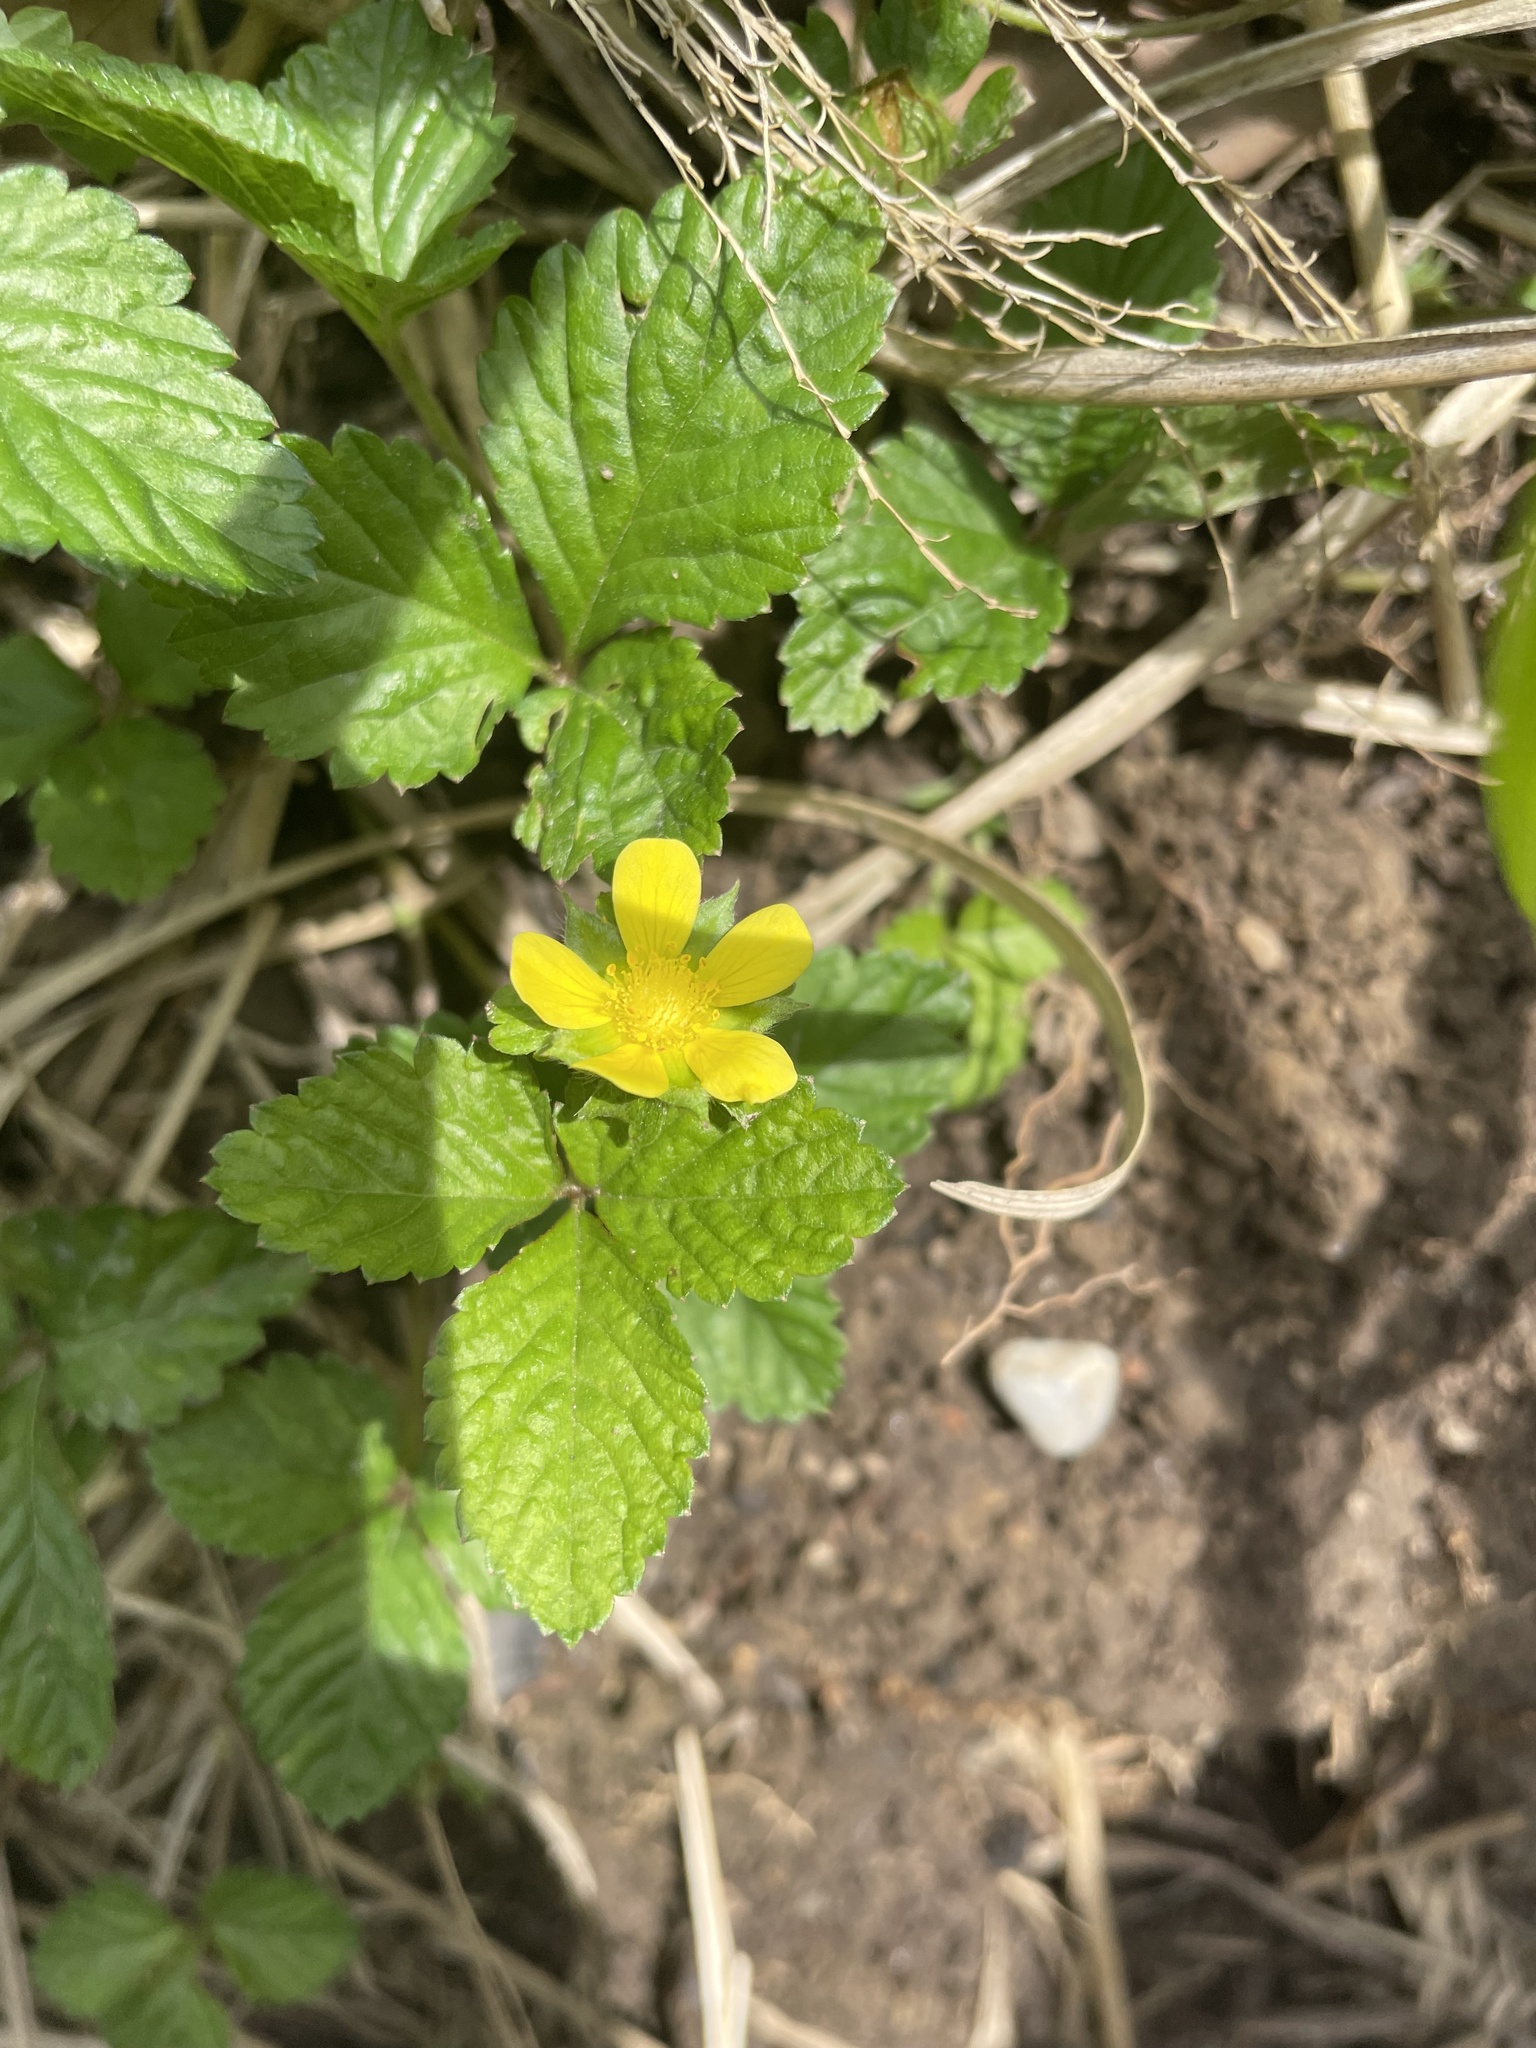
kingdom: Plantae
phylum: Tracheophyta
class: Magnoliopsida
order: Rosales
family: Rosaceae
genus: Potentilla
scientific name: Potentilla indica
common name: Yellow-flowered strawberry
